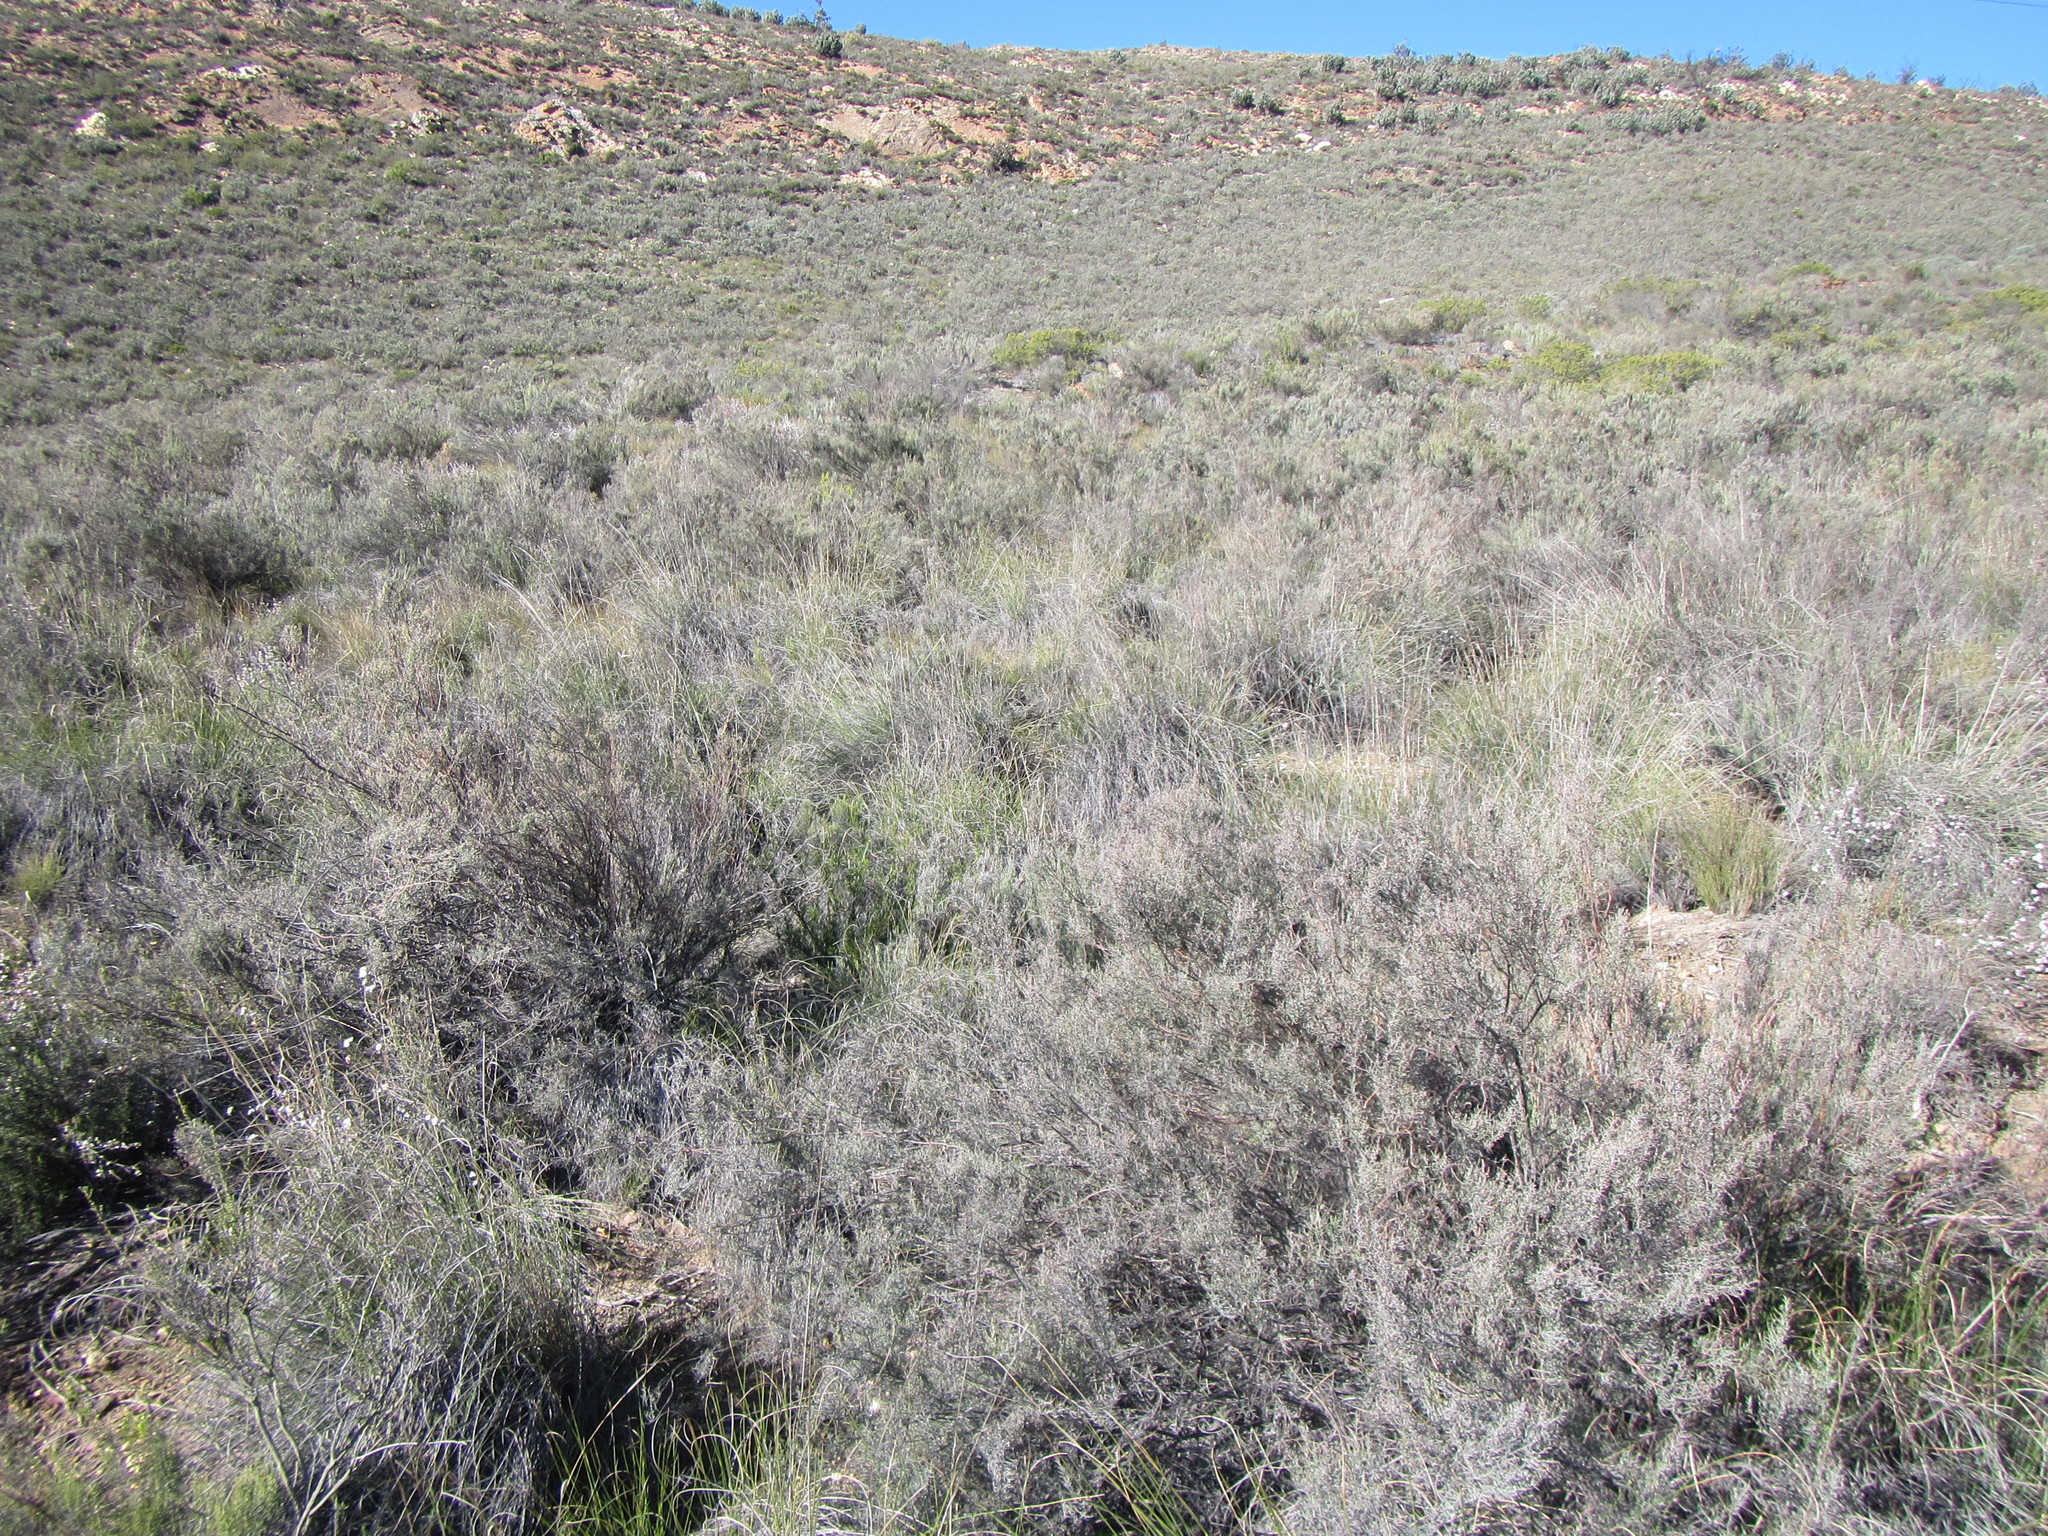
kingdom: Plantae
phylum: Tracheophyta
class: Magnoliopsida
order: Asterales
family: Asteraceae
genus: Dicerothamnus
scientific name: Dicerothamnus rhinocerotis
